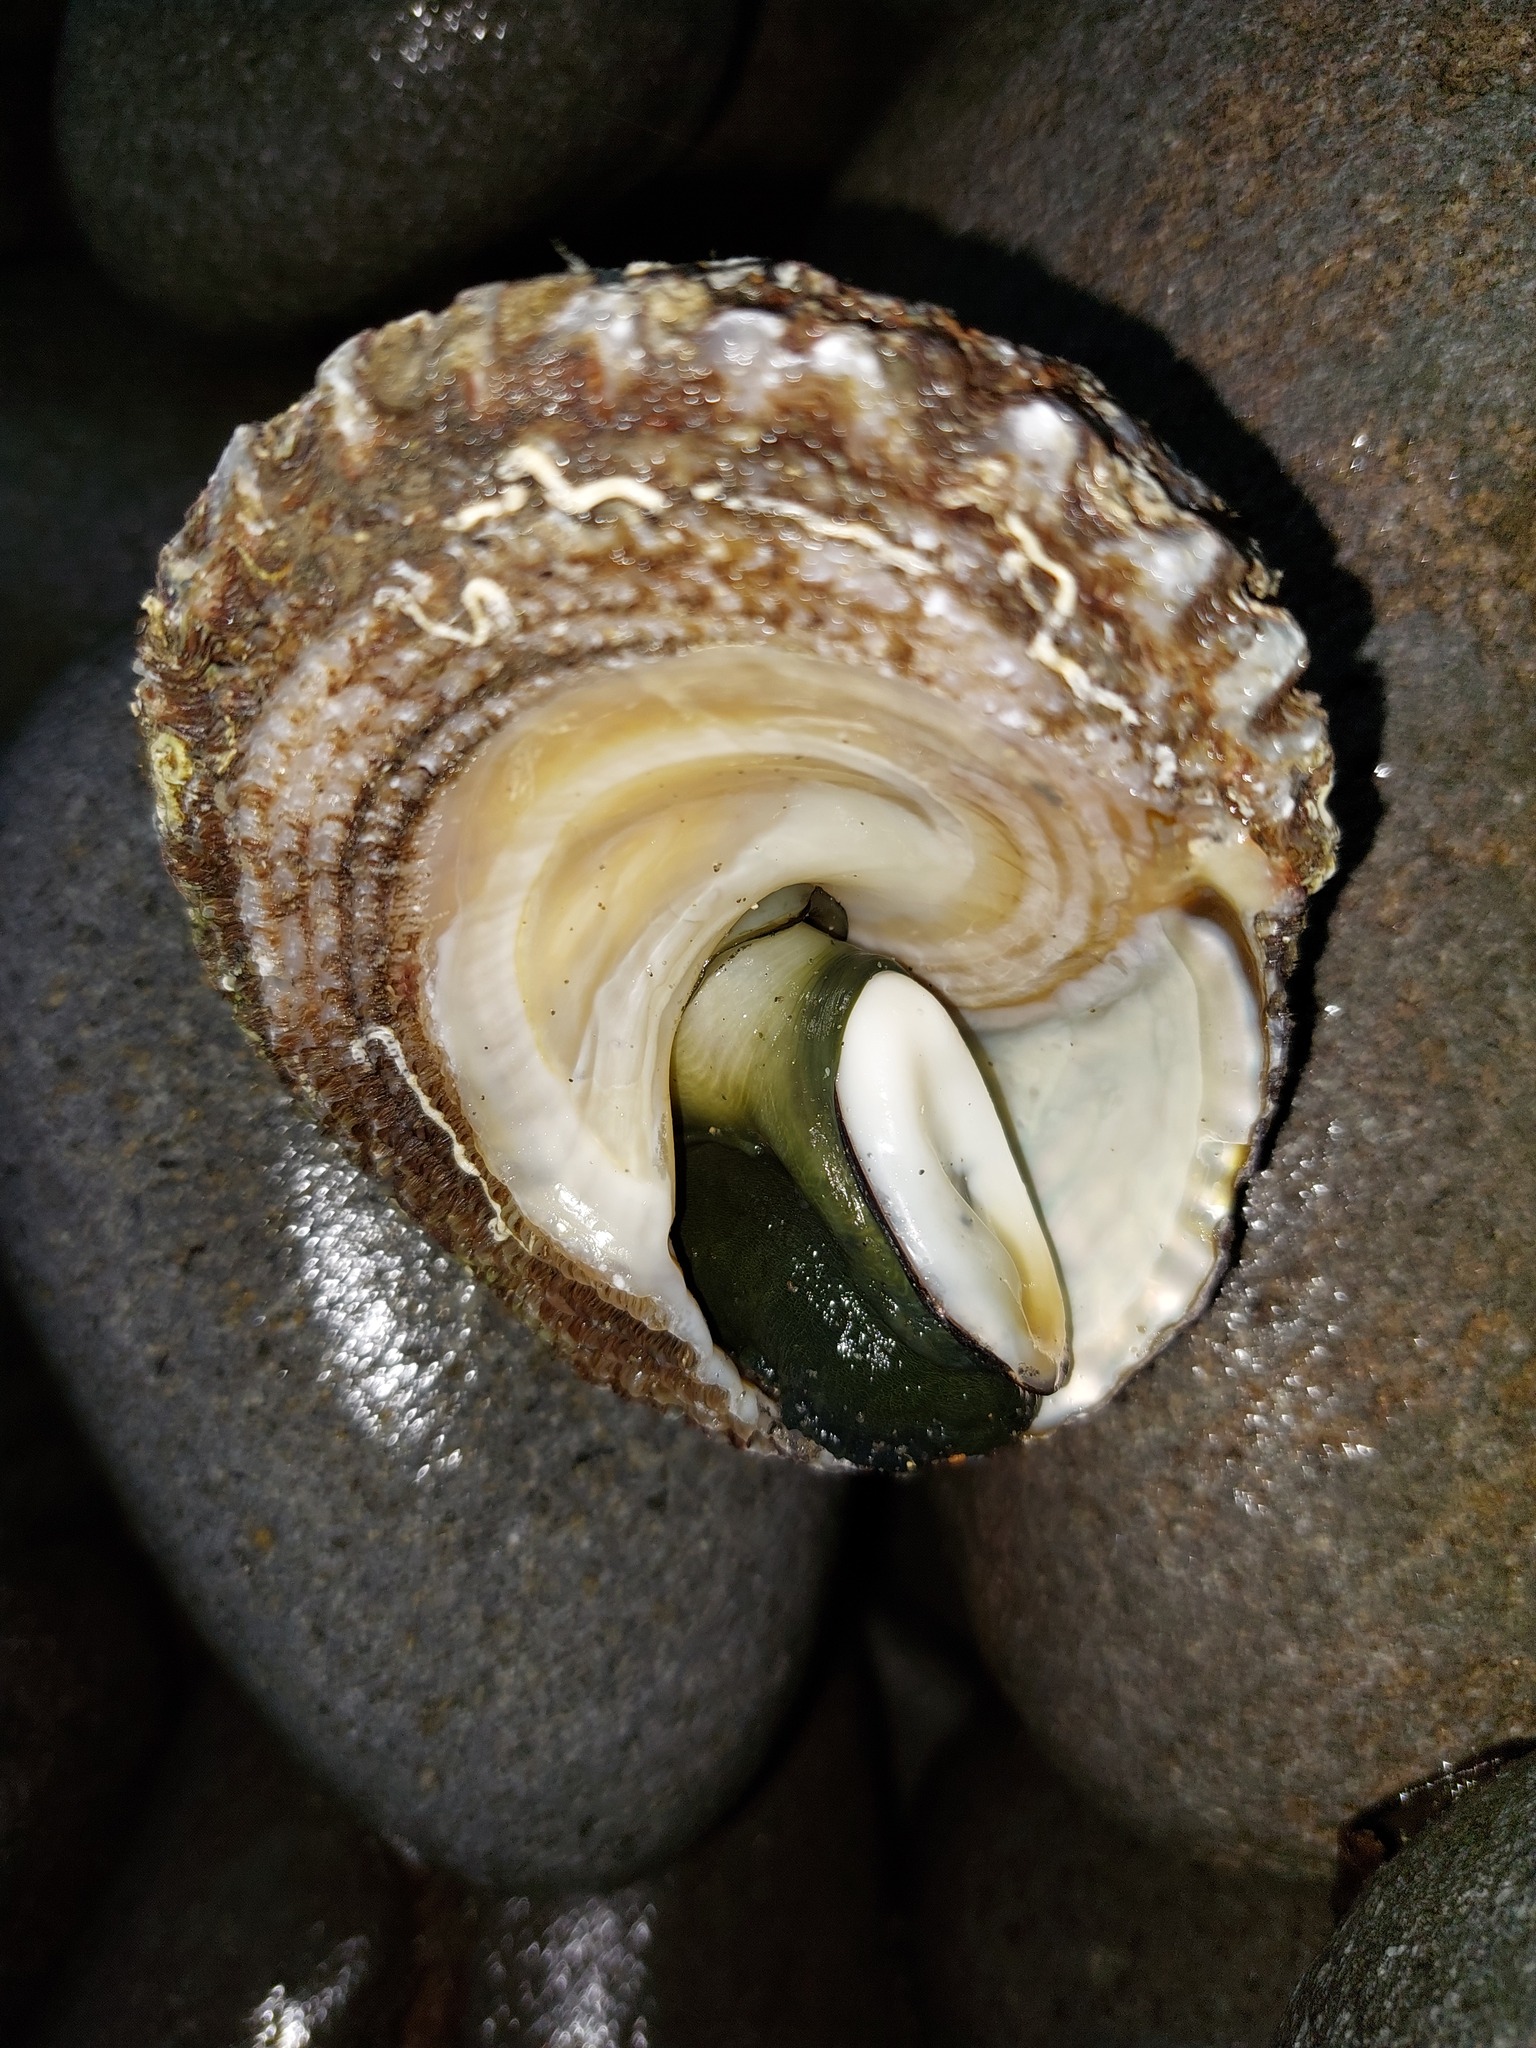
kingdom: Animalia
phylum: Mollusca
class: Gastropoda
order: Trochida
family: Turbinidae
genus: Cookia
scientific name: Cookia sulcata
